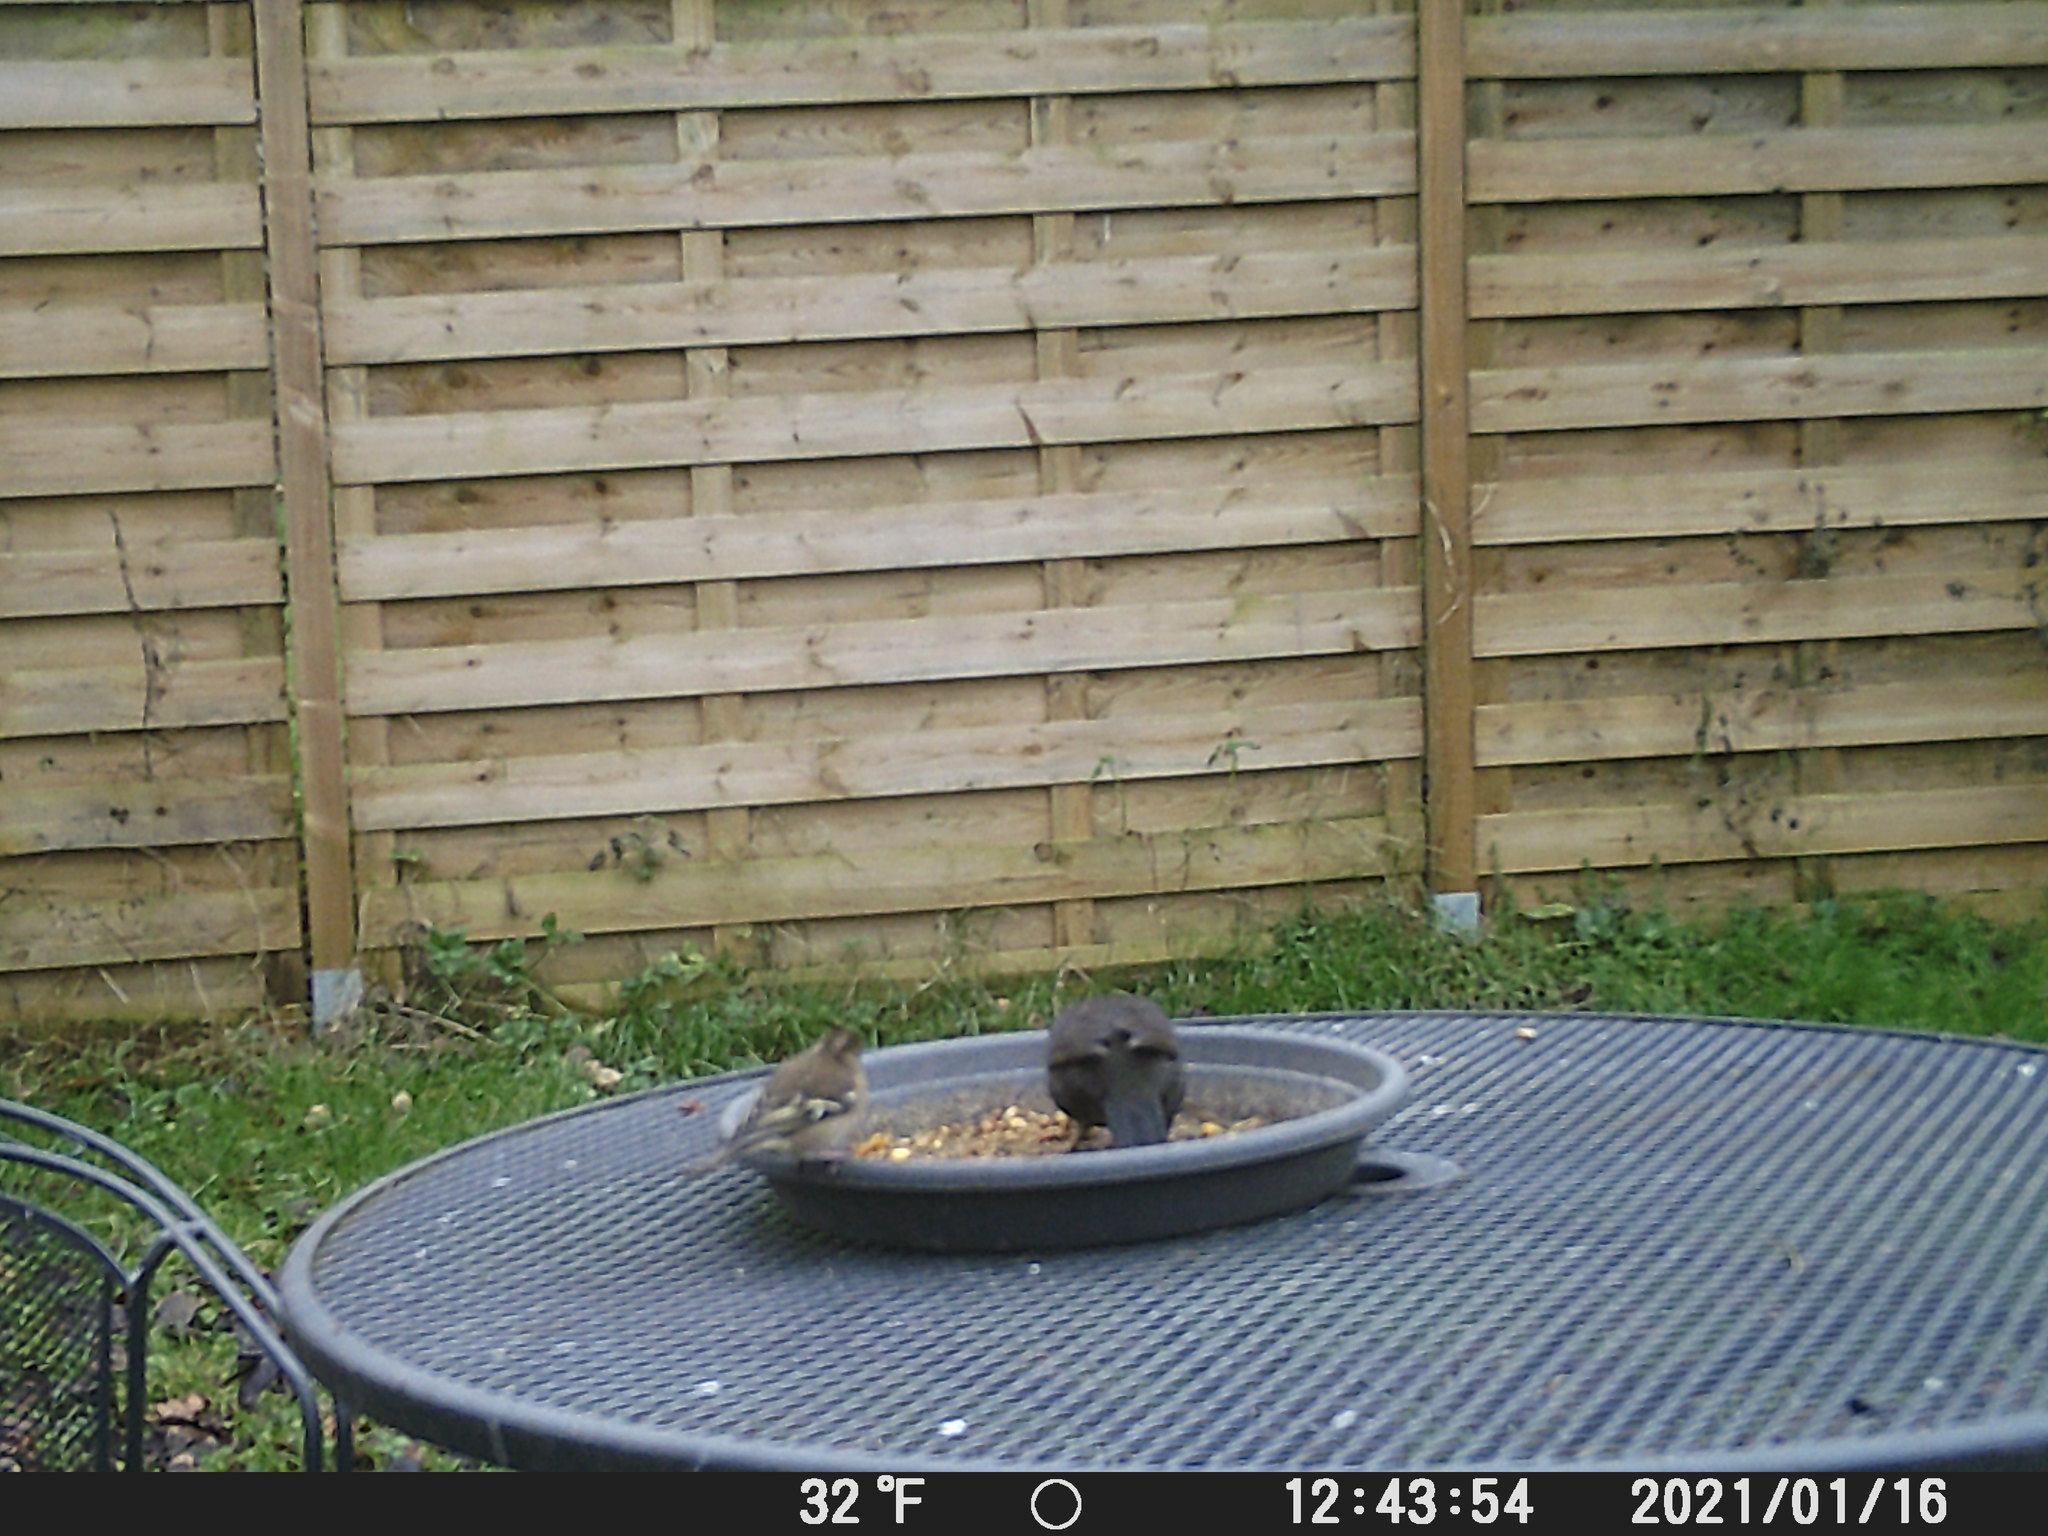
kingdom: Animalia
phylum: Chordata
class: Aves
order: Passeriformes
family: Fringillidae
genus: Fringilla
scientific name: Fringilla coelebs
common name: Common chaffinch
